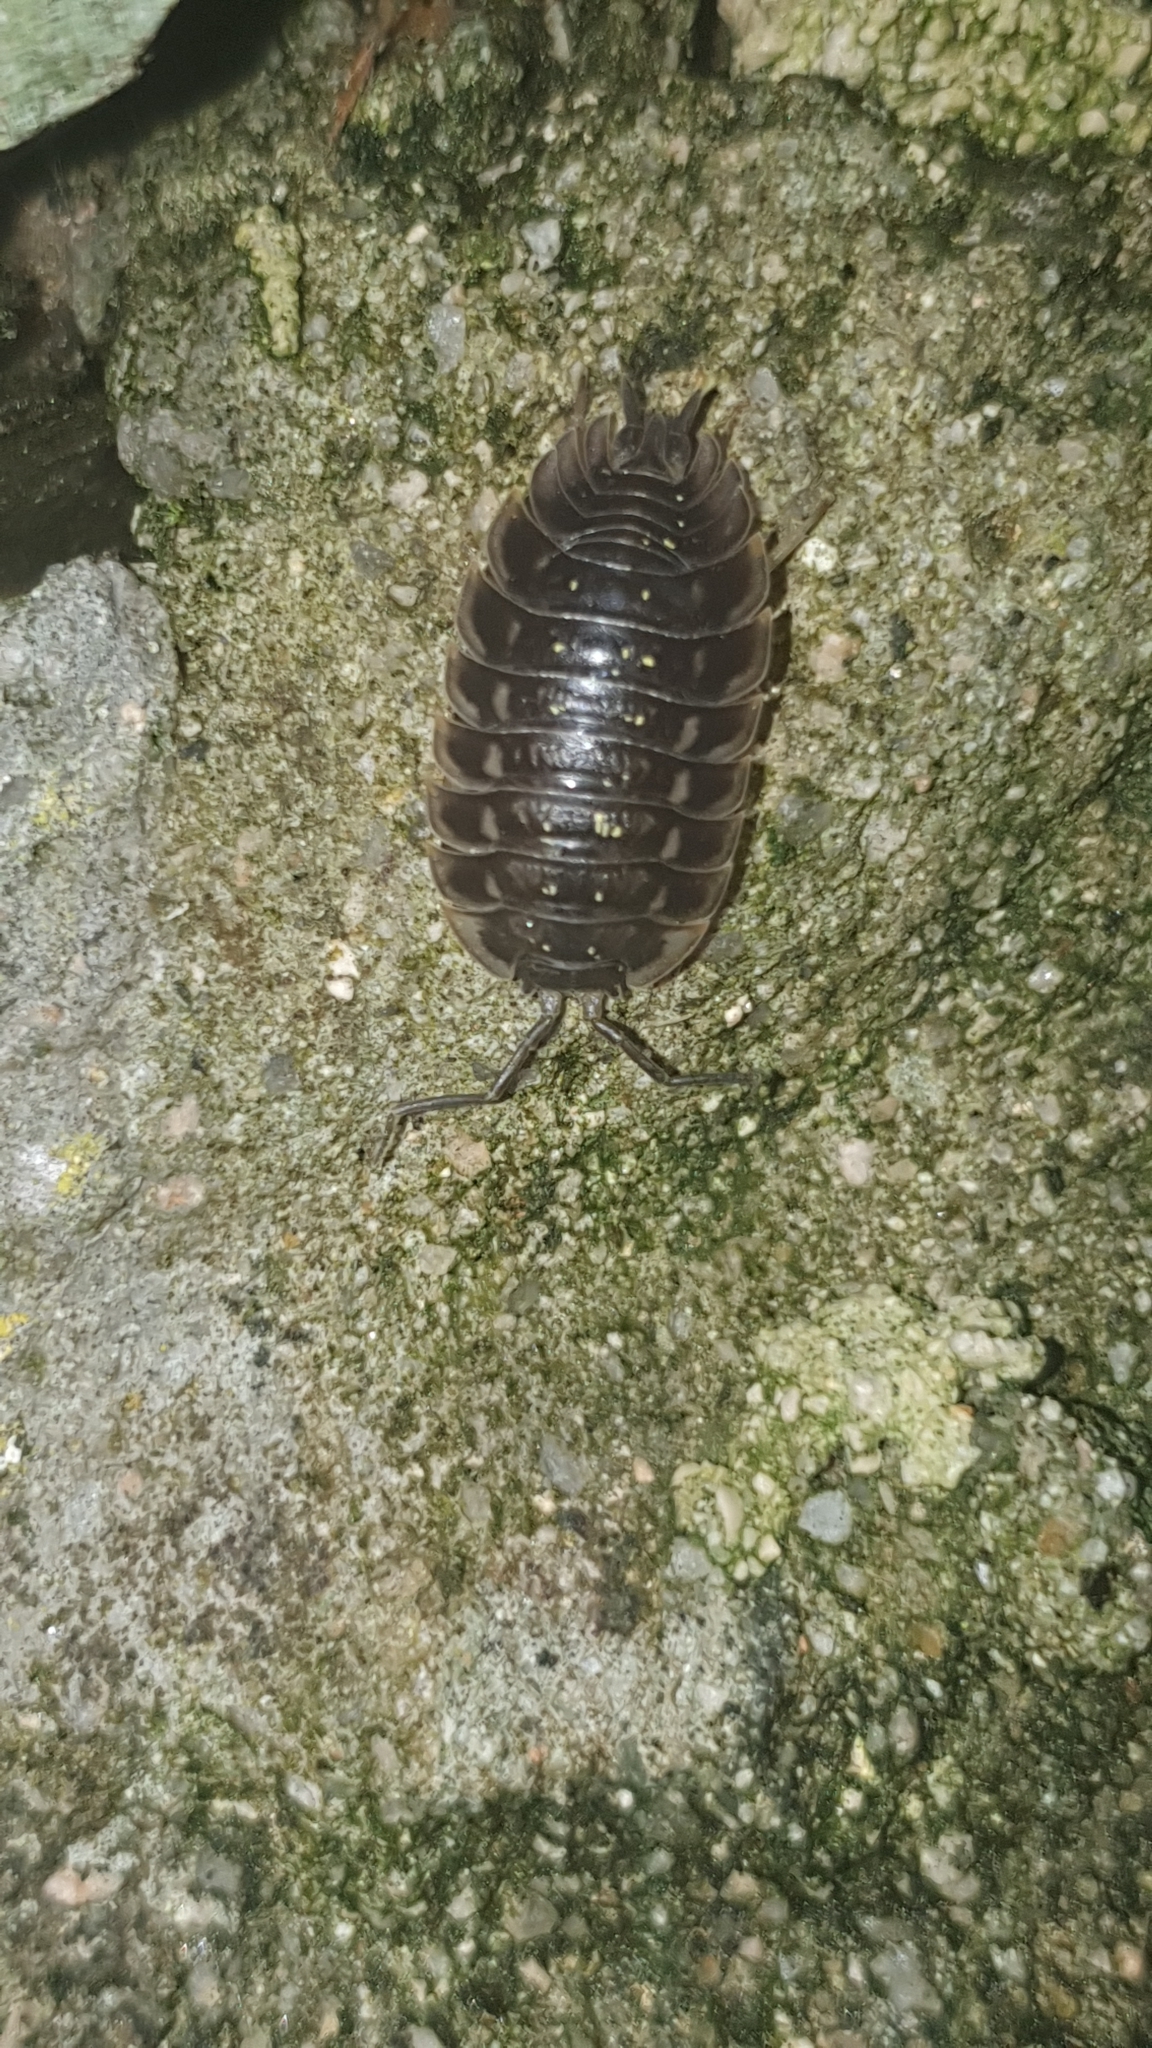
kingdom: Animalia
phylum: Arthropoda
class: Malacostraca
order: Isopoda
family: Oniscidae
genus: Oniscus
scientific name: Oniscus asellus
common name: Common shiny woodlouse
